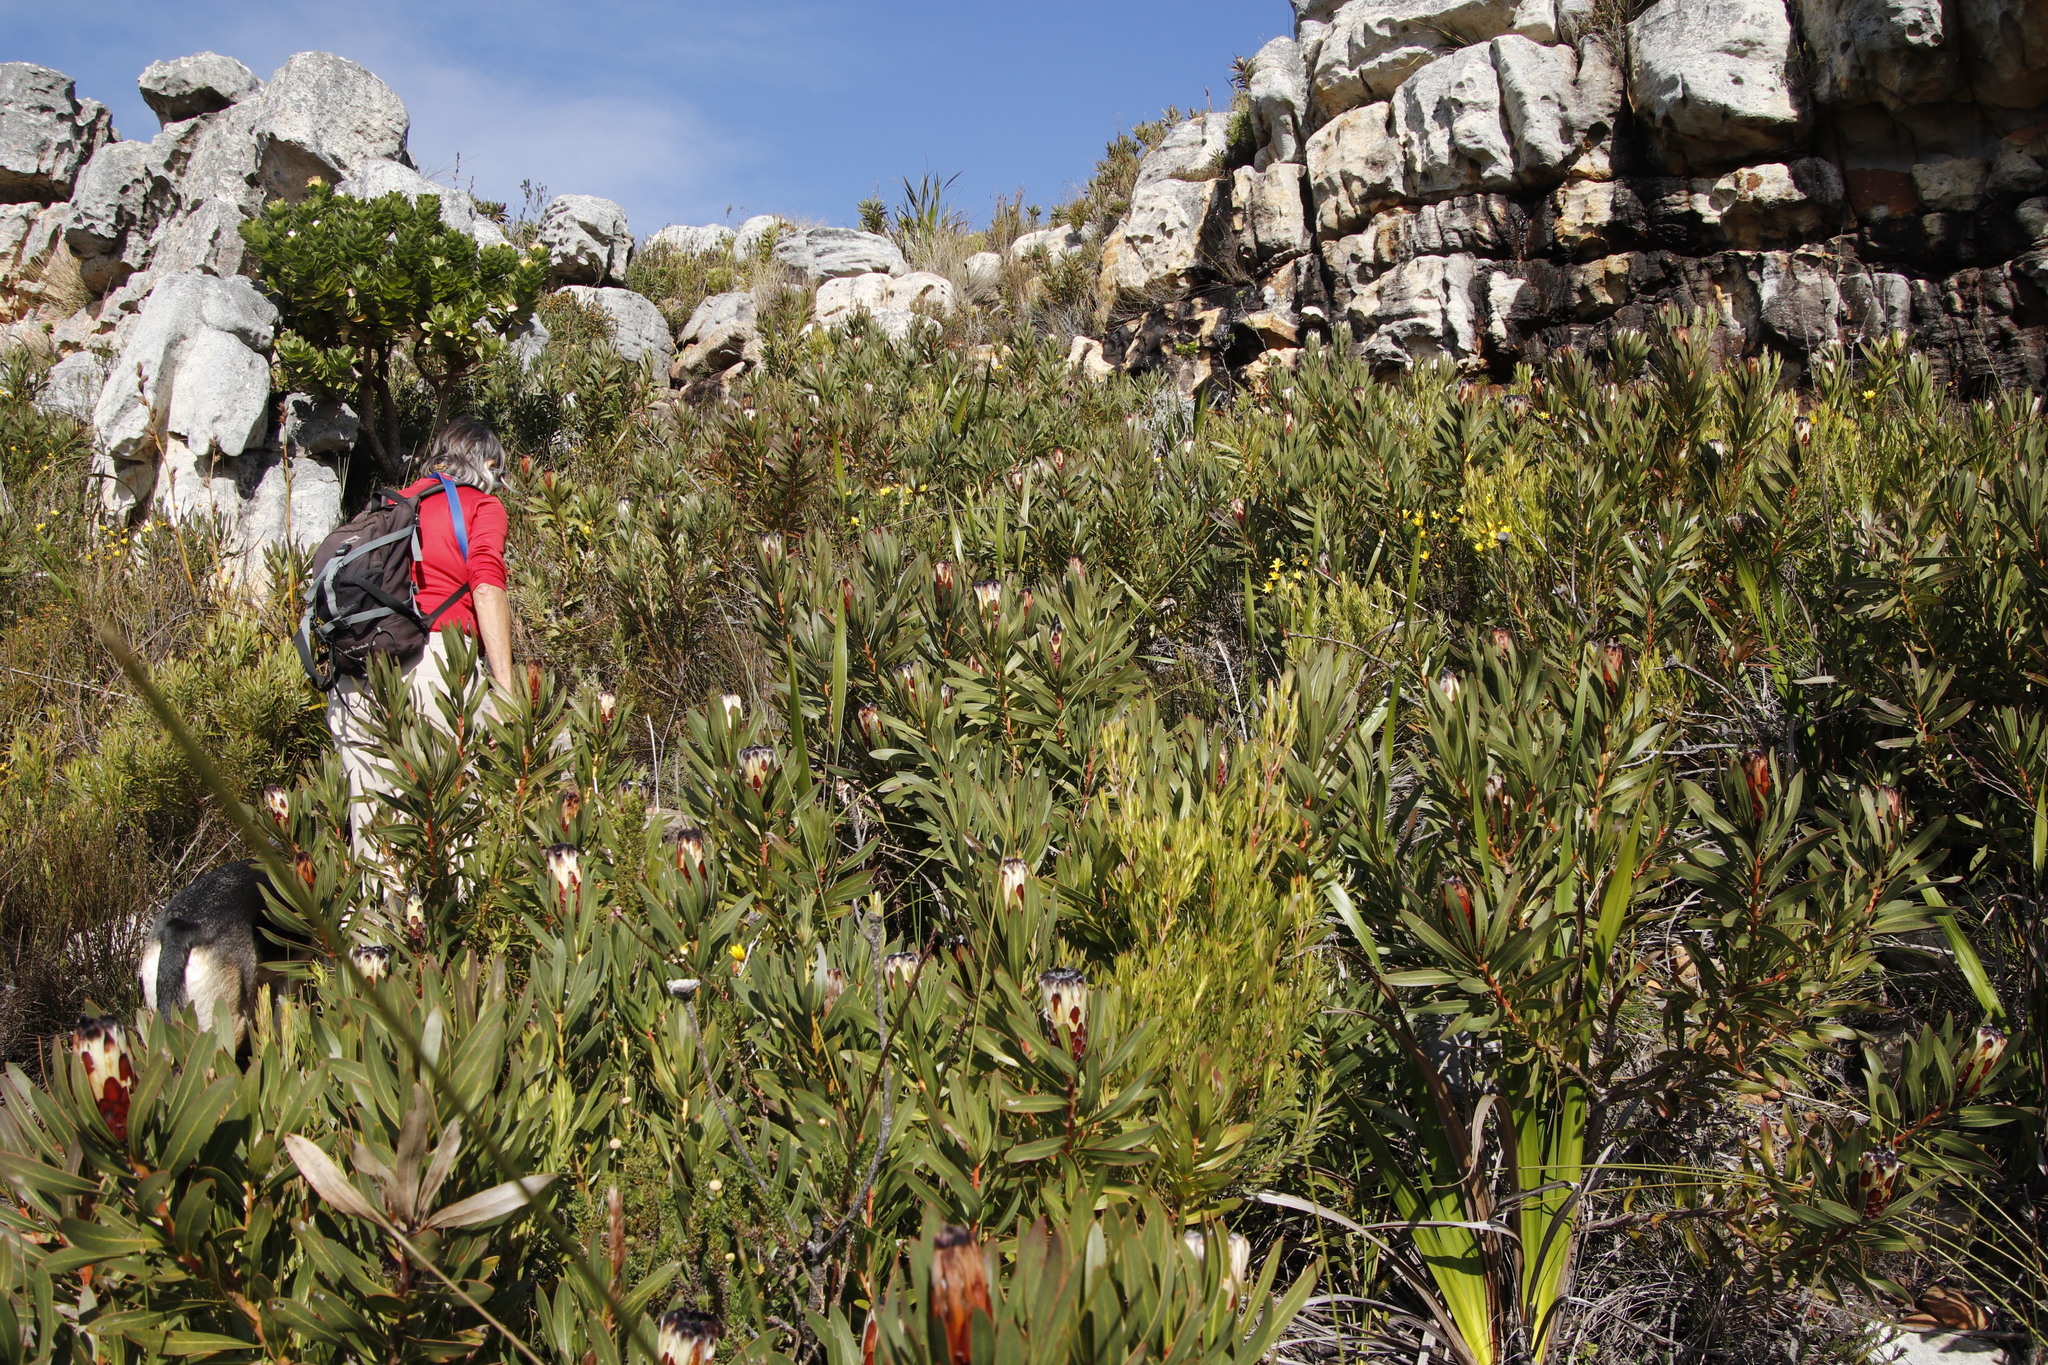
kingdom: Plantae
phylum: Tracheophyta
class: Magnoliopsida
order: Proteales
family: Proteaceae
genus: Protea
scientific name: Protea lepidocarpodendron
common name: Black-bearded protea
